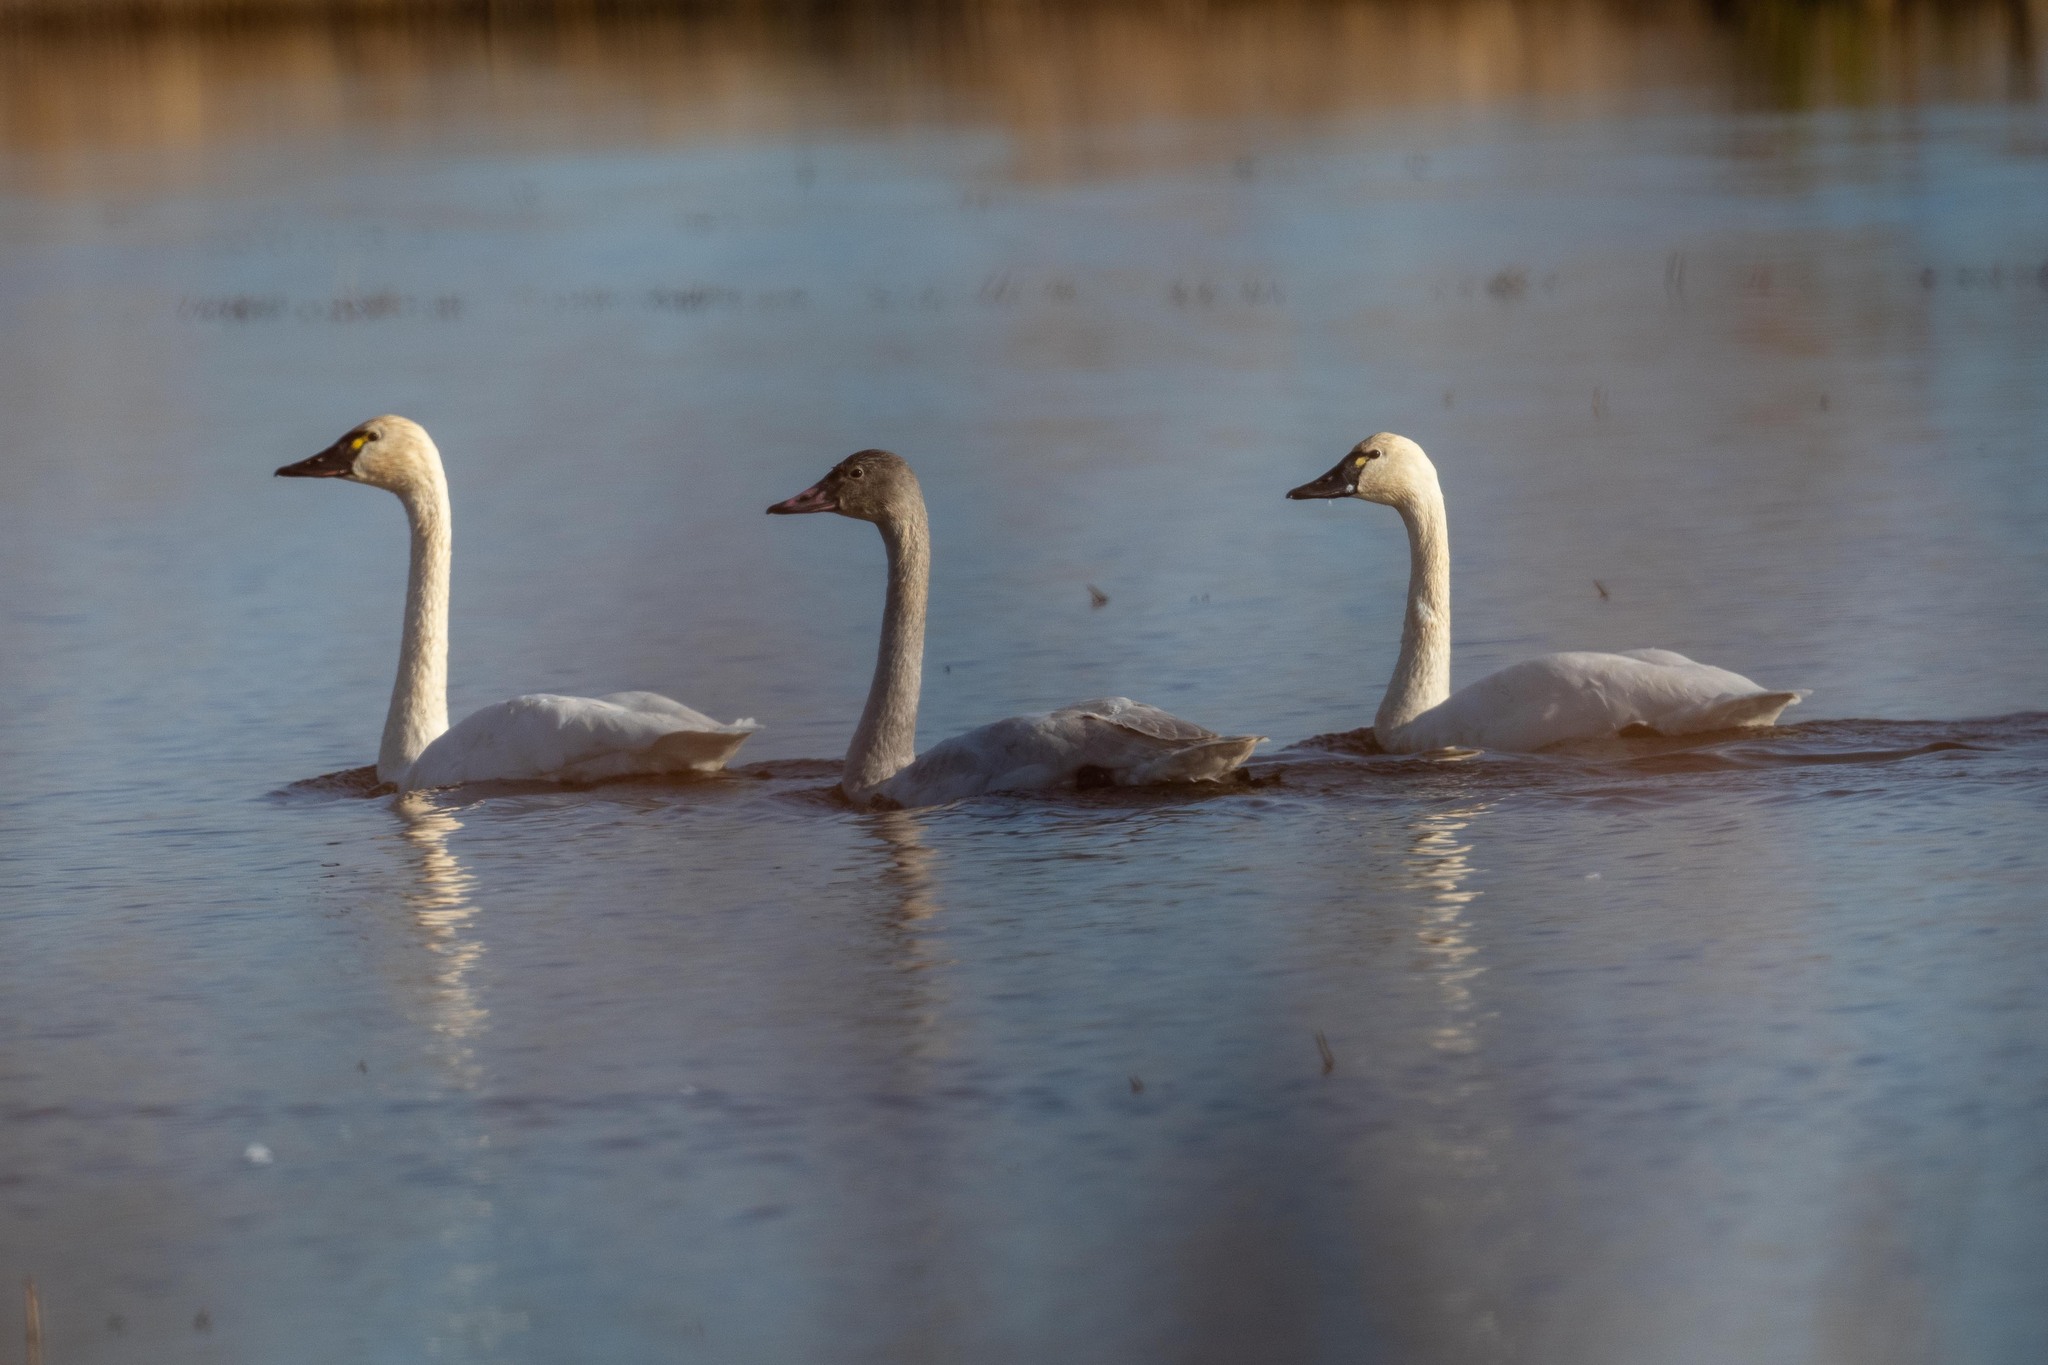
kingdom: Animalia
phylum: Chordata
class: Aves
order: Anseriformes
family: Anatidae
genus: Cygnus
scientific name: Cygnus columbianus
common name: Tundra swan
